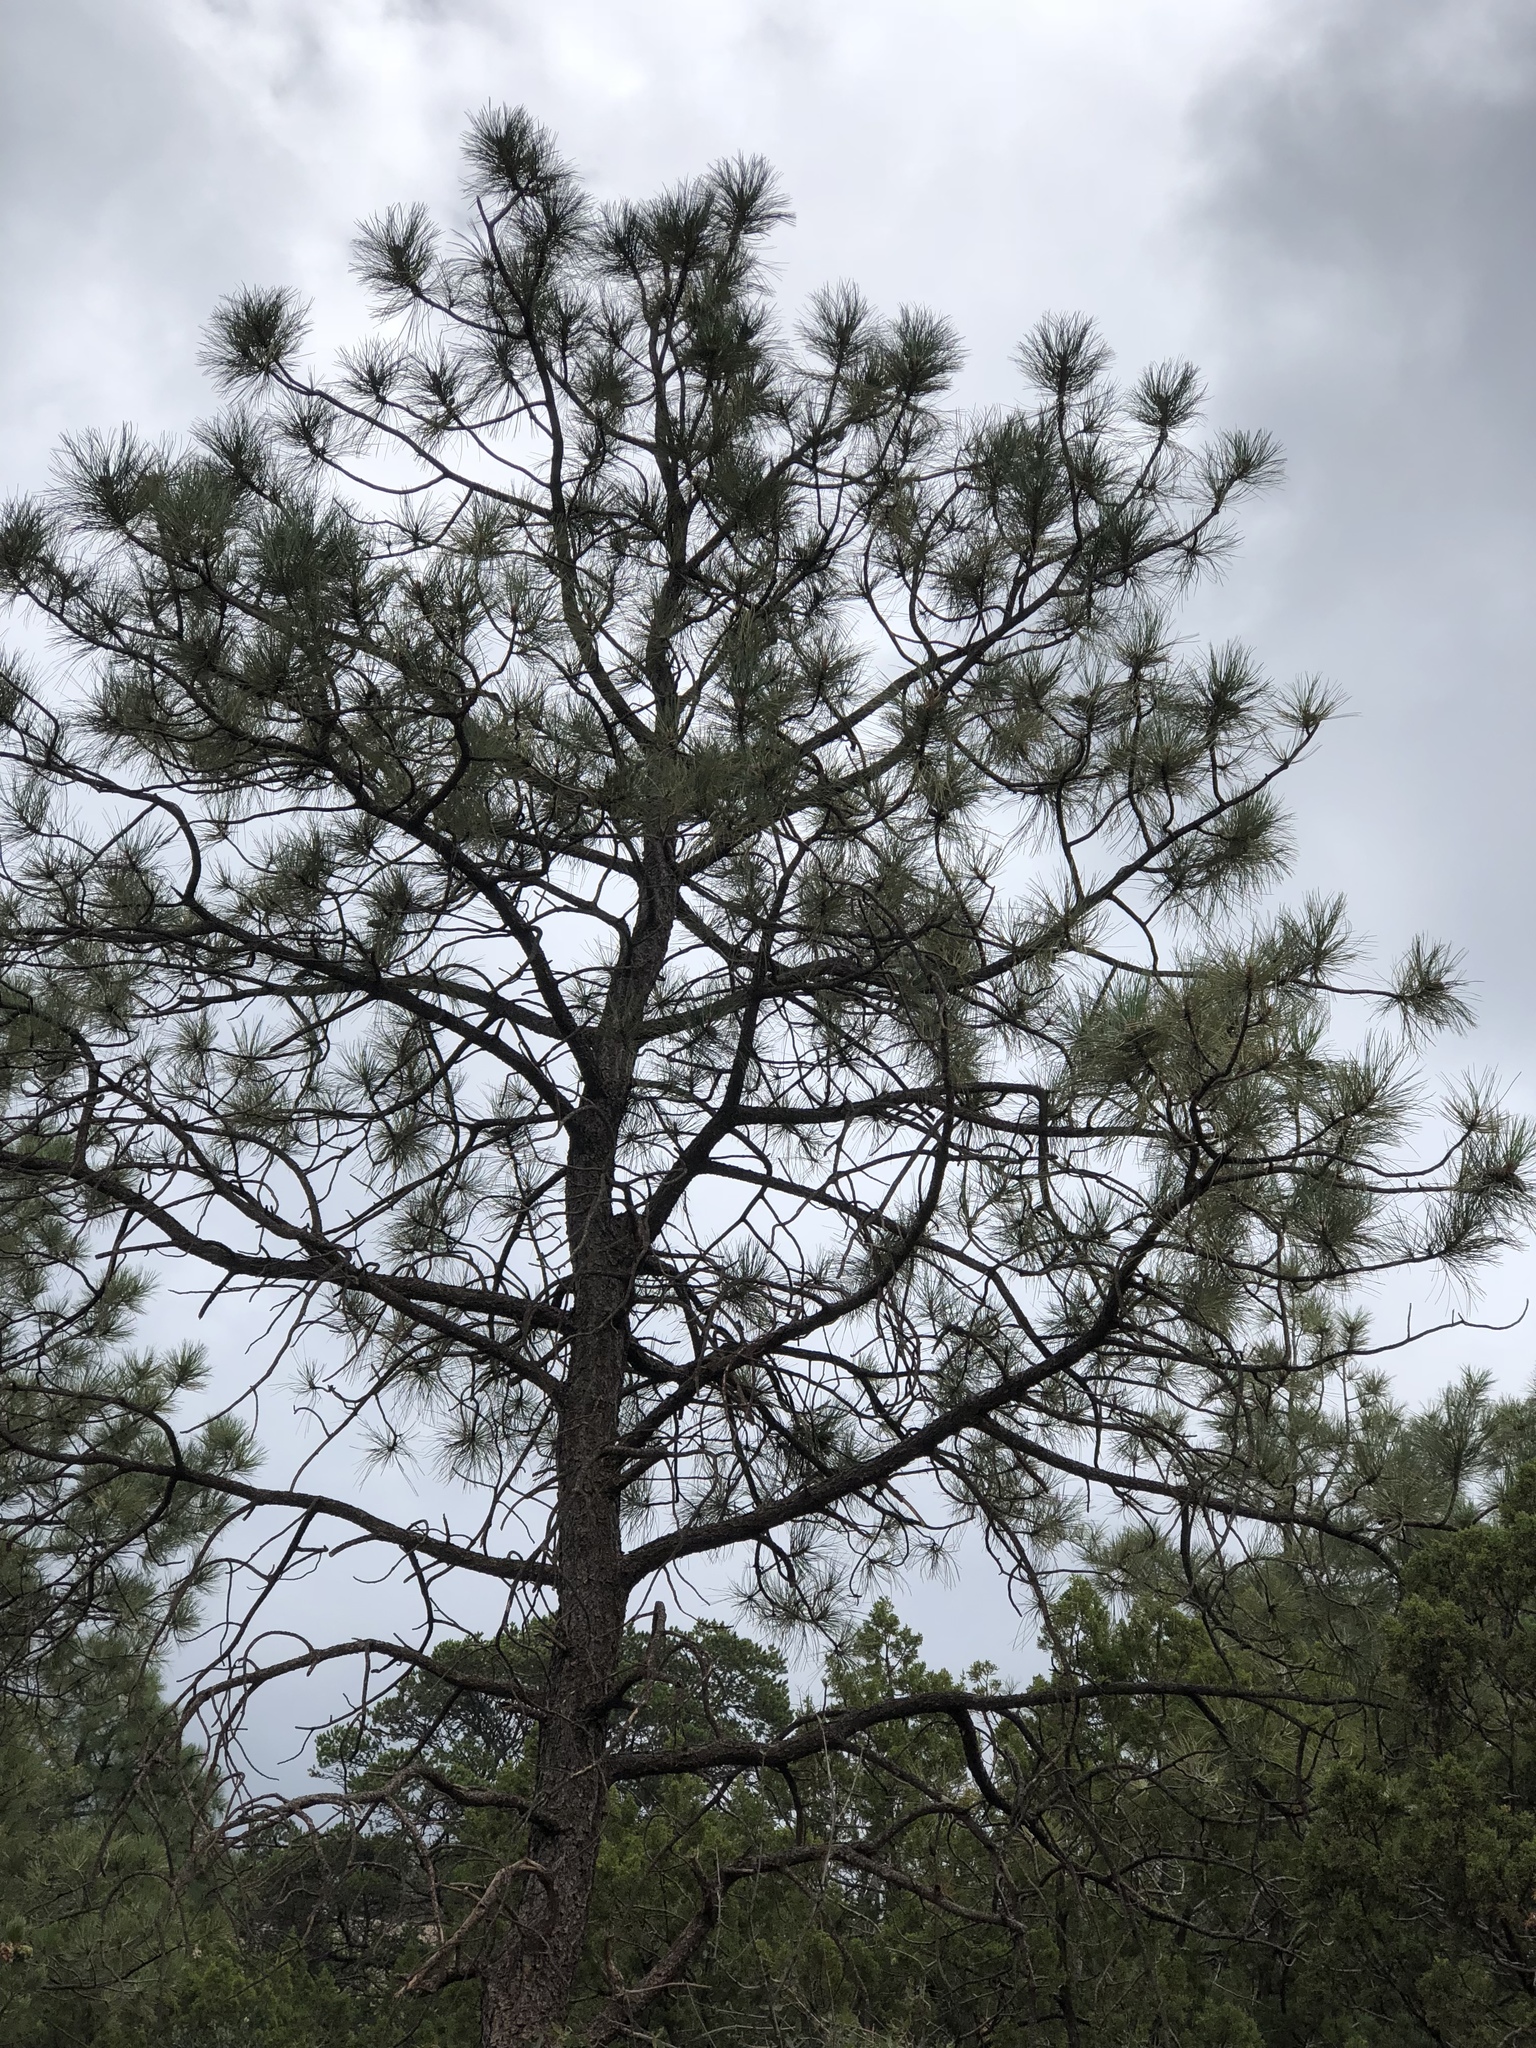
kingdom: Plantae
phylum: Tracheophyta
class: Pinopsida
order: Pinales
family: Pinaceae
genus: Pinus
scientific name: Pinus ponderosa
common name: Western yellow-pine
